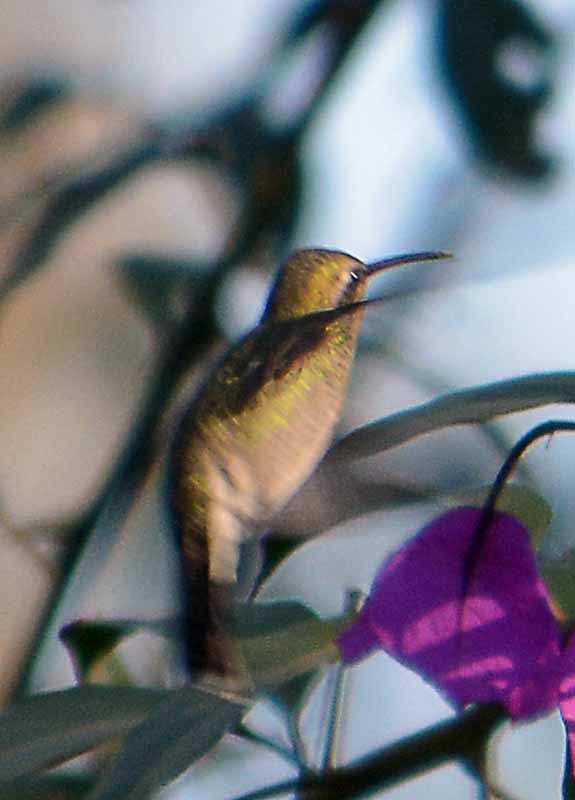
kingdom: Animalia
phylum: Chordata
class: Aves
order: Apodiformes
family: Trochilidae
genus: Calothorax
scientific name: Calothorax lucifer
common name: Lucifer sheartail
